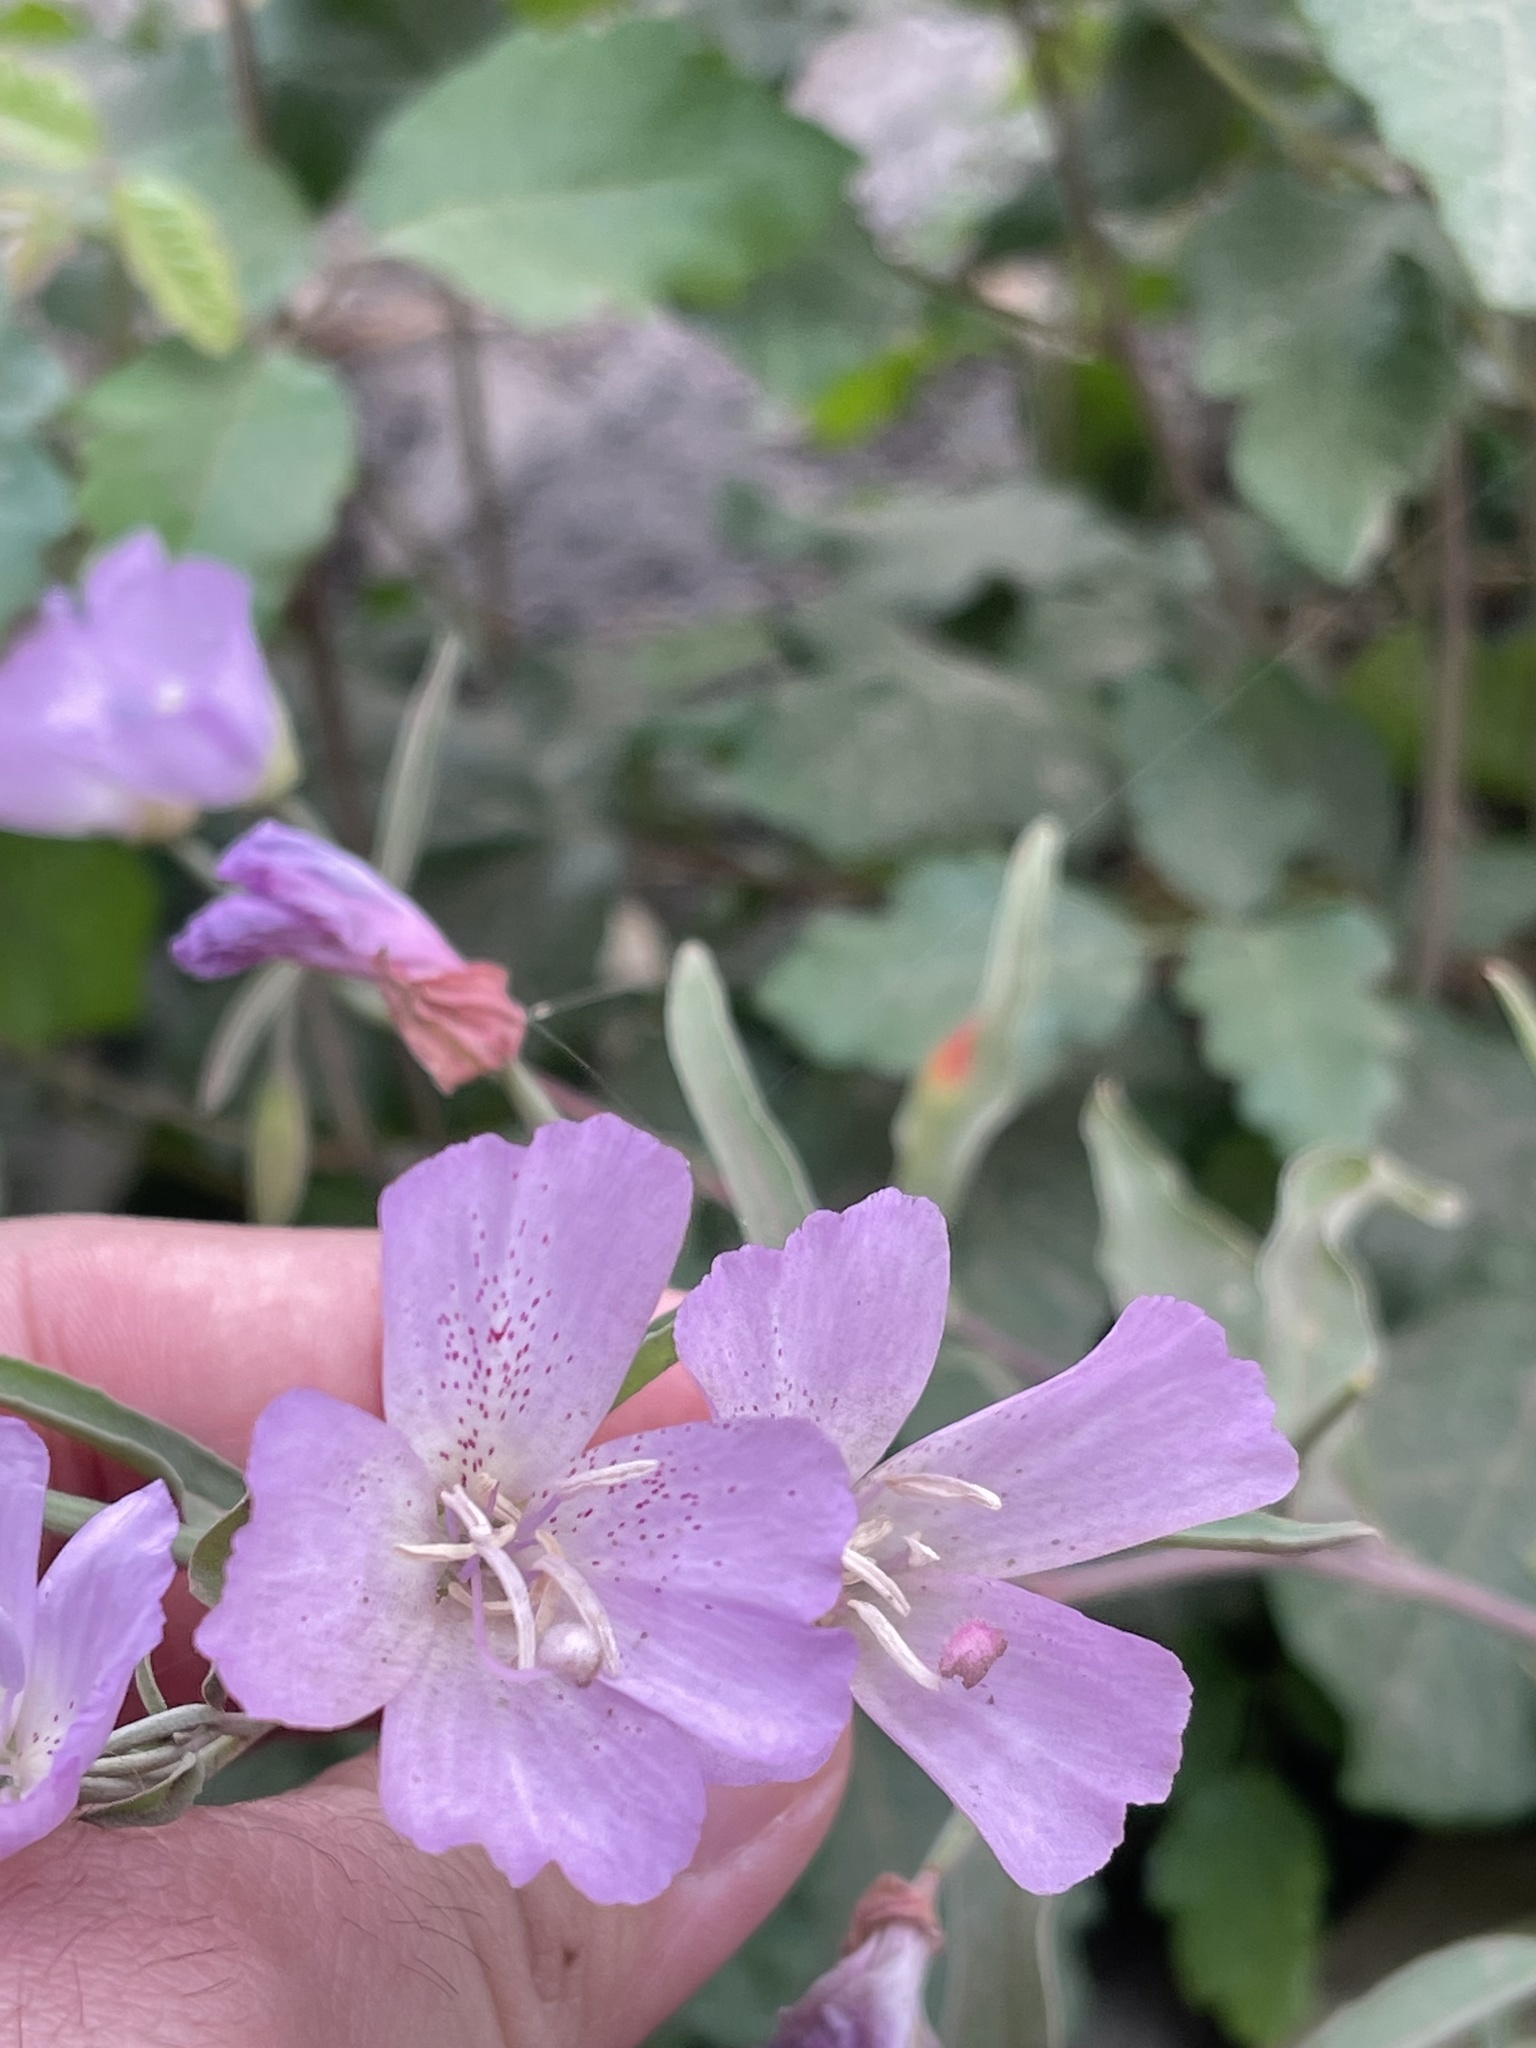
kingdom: Plantae
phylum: Tracheophyta
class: Magnoliopsida
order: Myrtales
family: Onagraceae
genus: Clarkia
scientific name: Clarkia bottae
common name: Punch-bowl godetia
